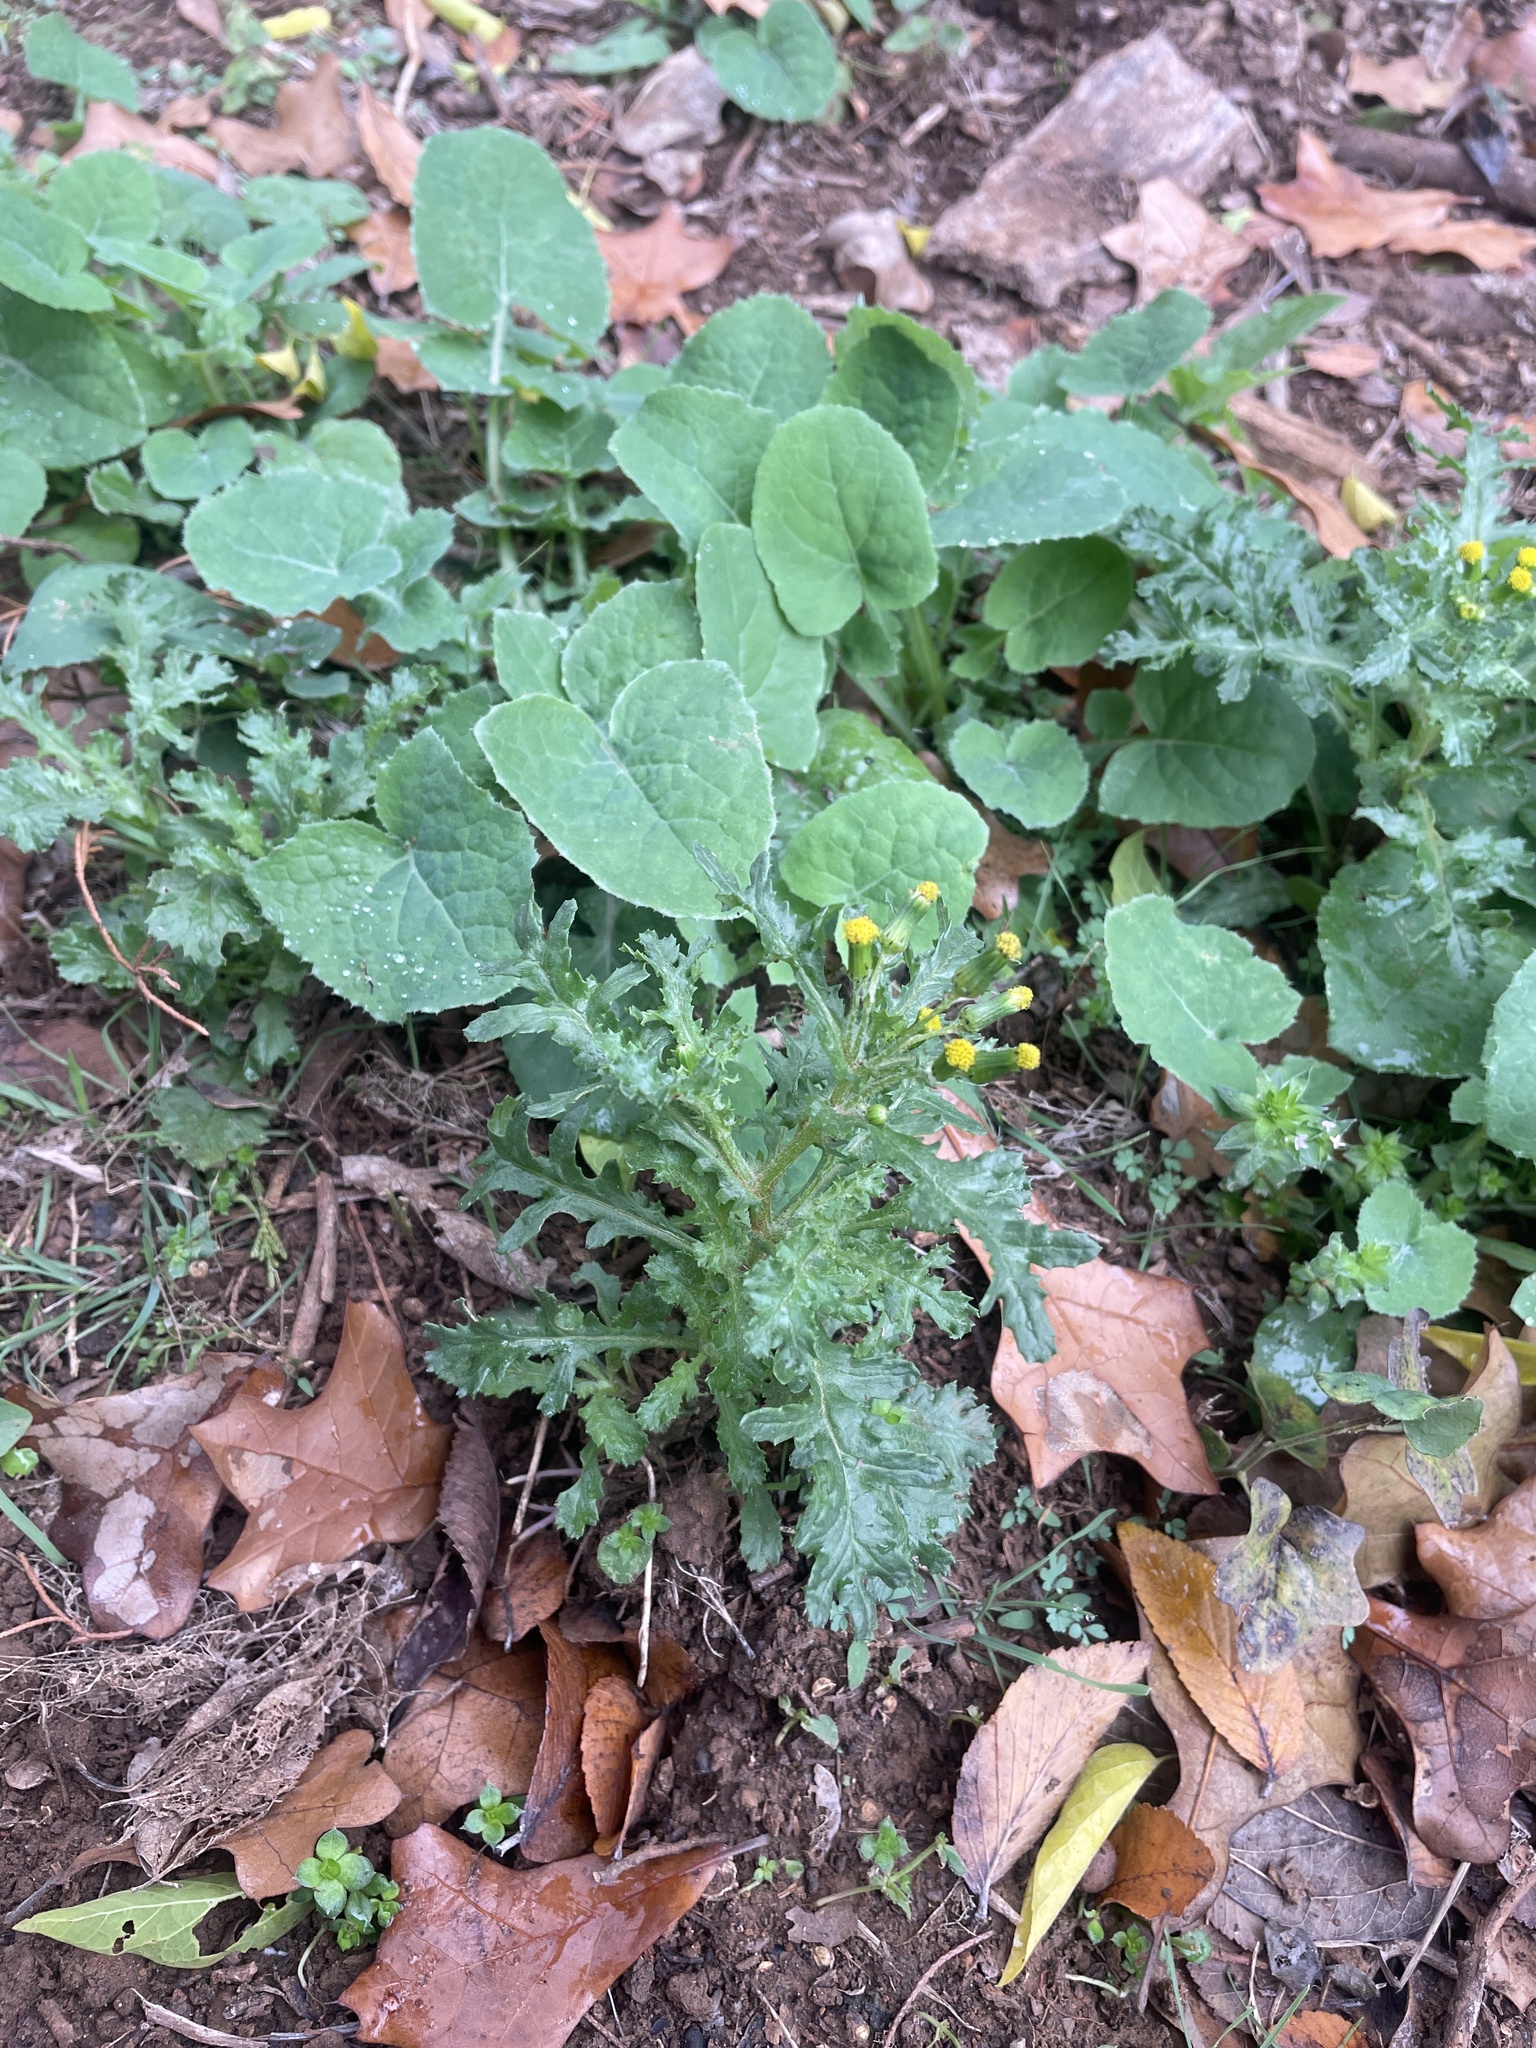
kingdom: Plantae
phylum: Tracheophyta
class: Magnoliopsida
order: Asterales
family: Asteraceae
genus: Senecio
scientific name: Senecio vulgaris
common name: Old-man-in-the-spring
